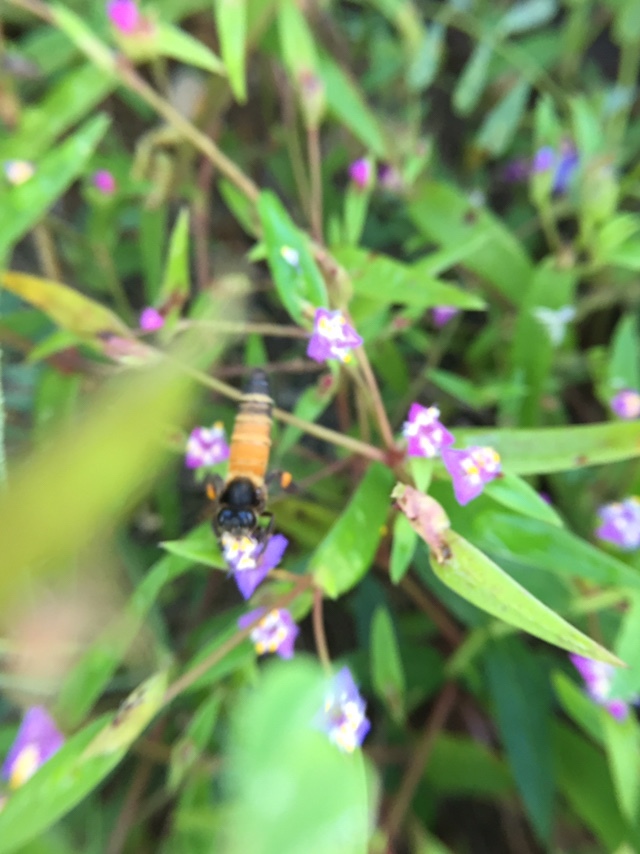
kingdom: Animalia
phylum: Arthropoda
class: Insecta
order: Hymenoptera
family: Apidae
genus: Apis
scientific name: Apis dorsata
